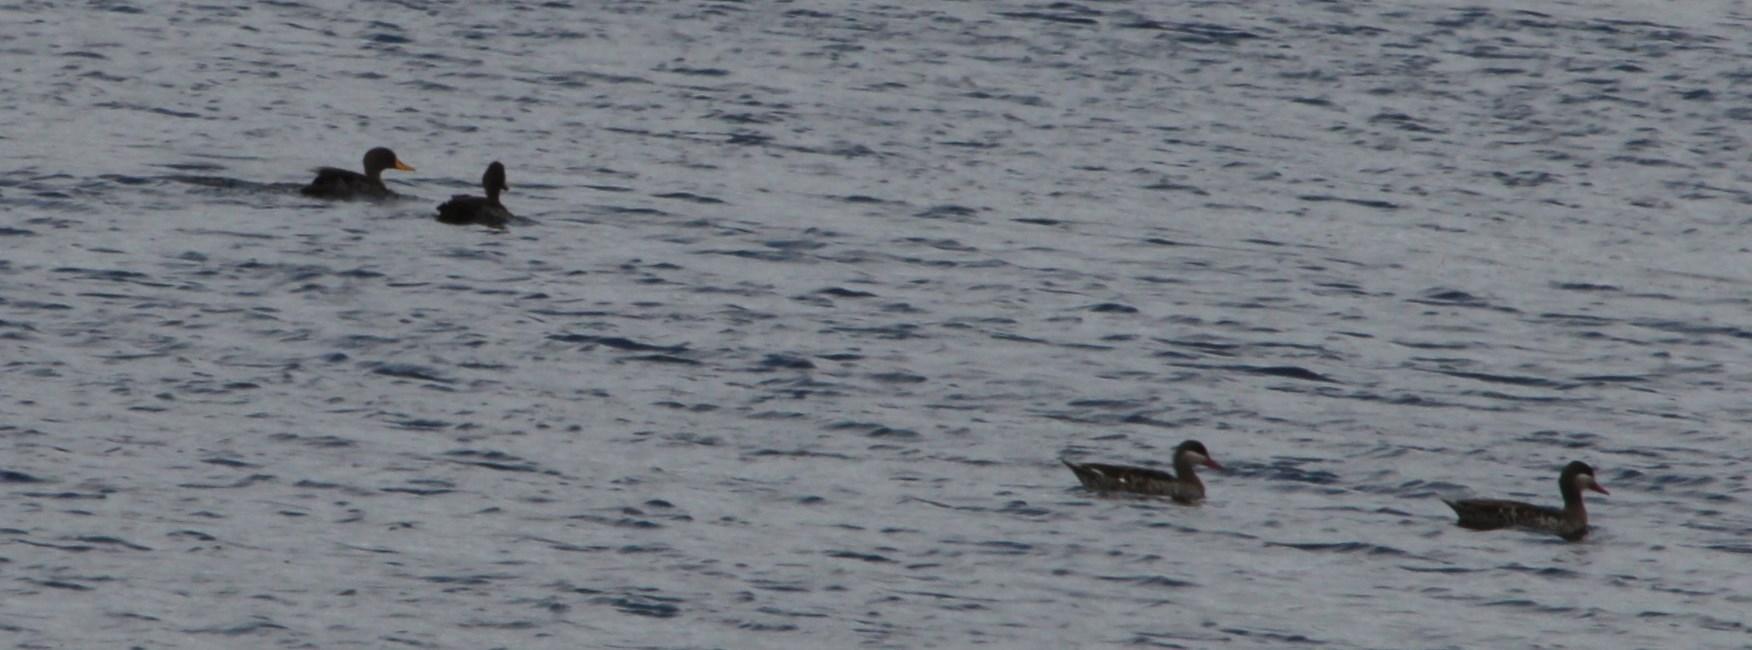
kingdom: Animalia
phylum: Chordata
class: Aves
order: Anseriformes
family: Anatidae
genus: Anas
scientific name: Anas erythrorhyncha
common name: Red-billed teal
